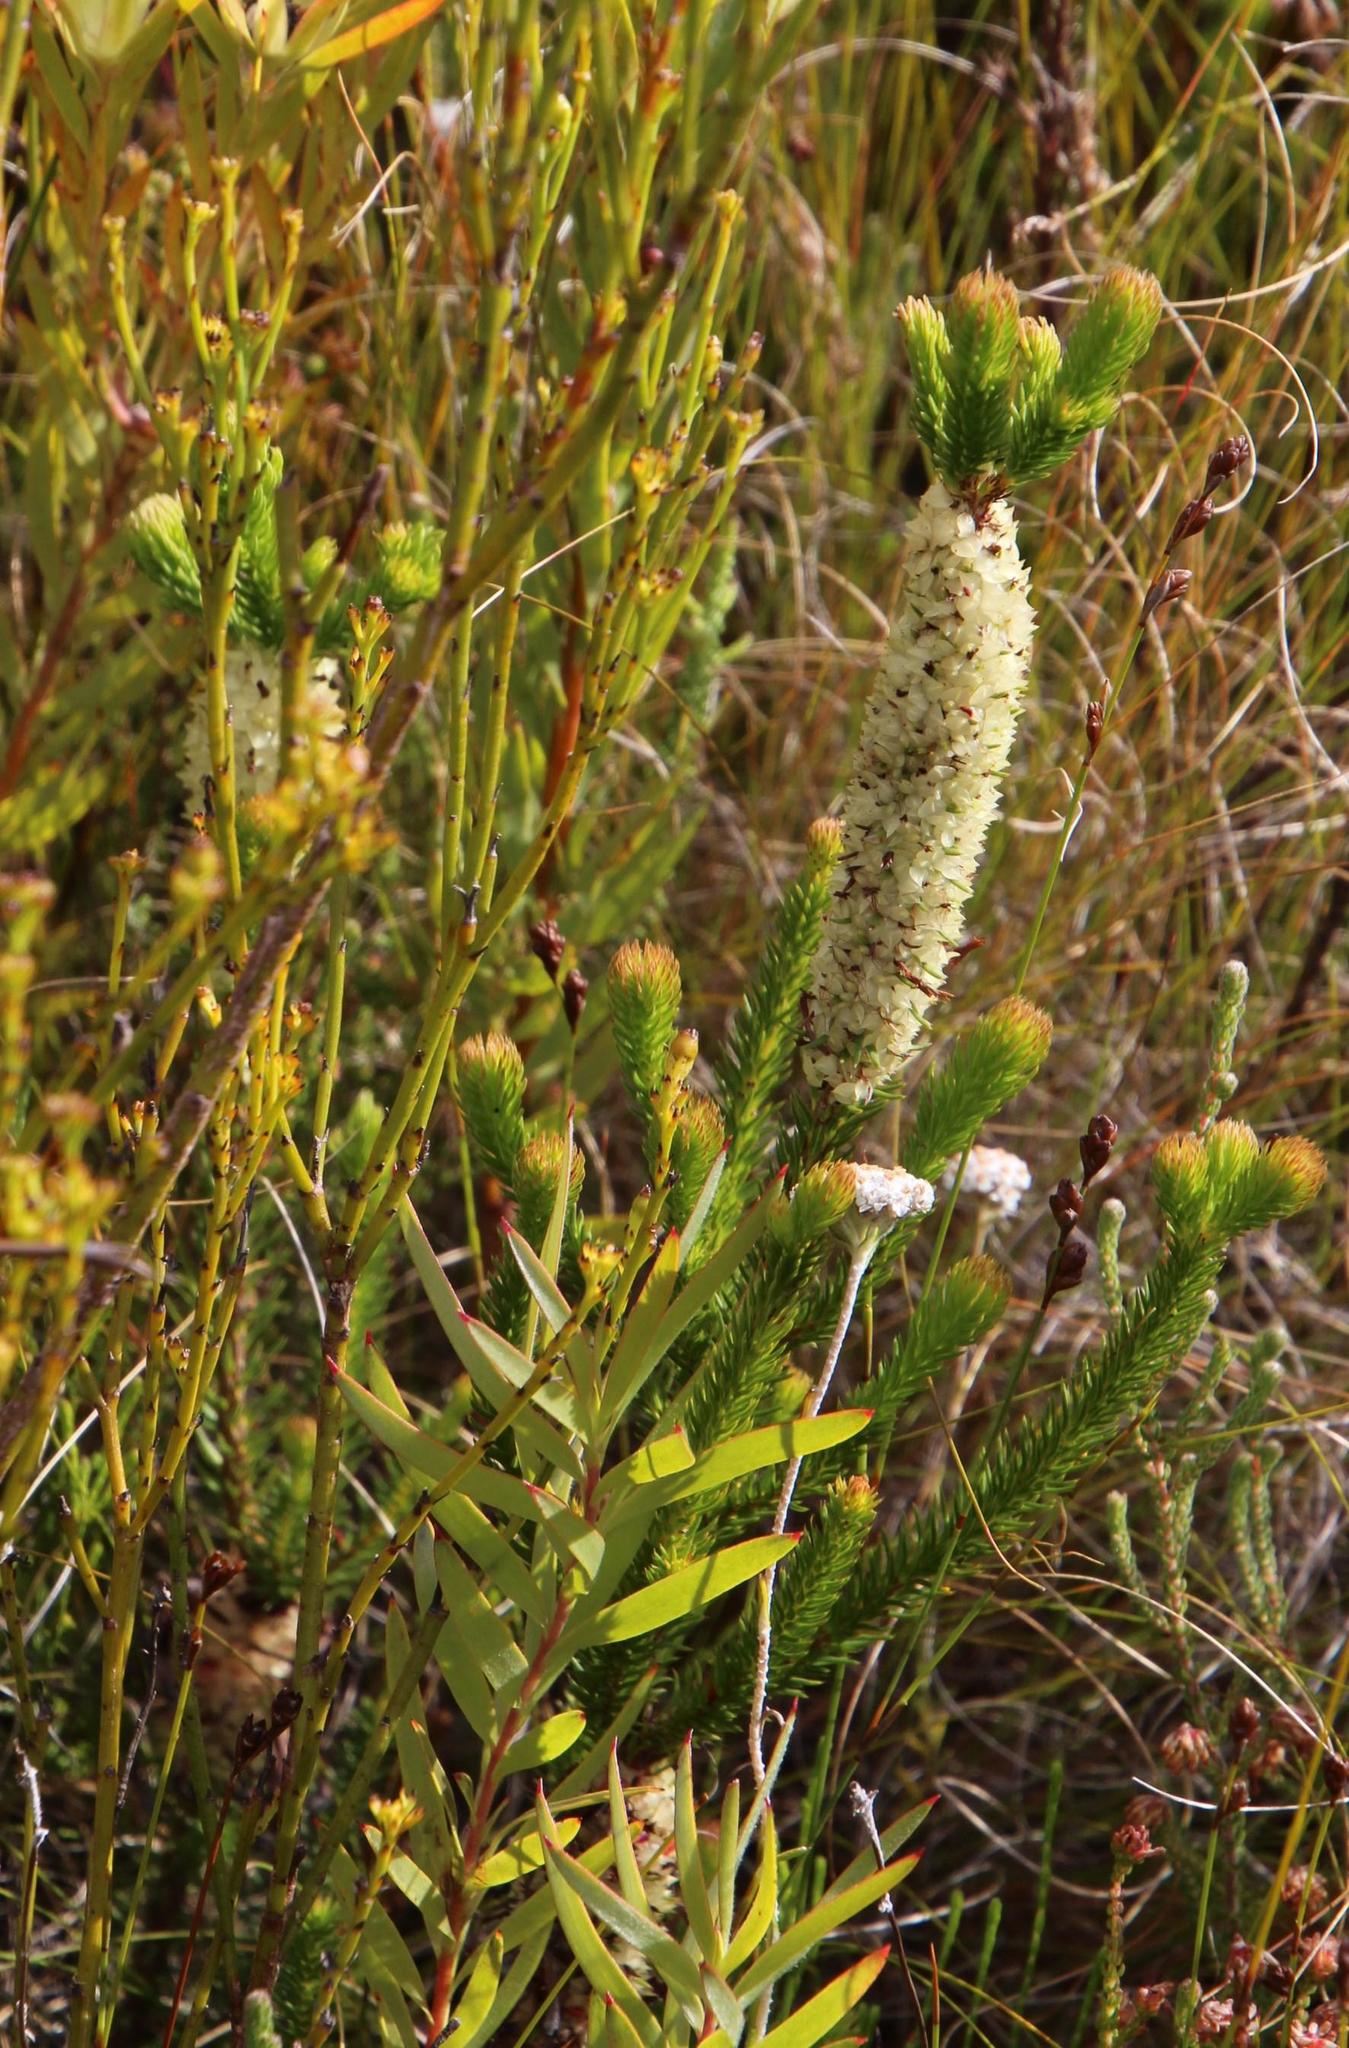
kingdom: Plantae
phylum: Tracheophyta
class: Magnoliopsida
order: Ericales
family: Ericaceae
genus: Erica
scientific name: Erica sessiliflora
